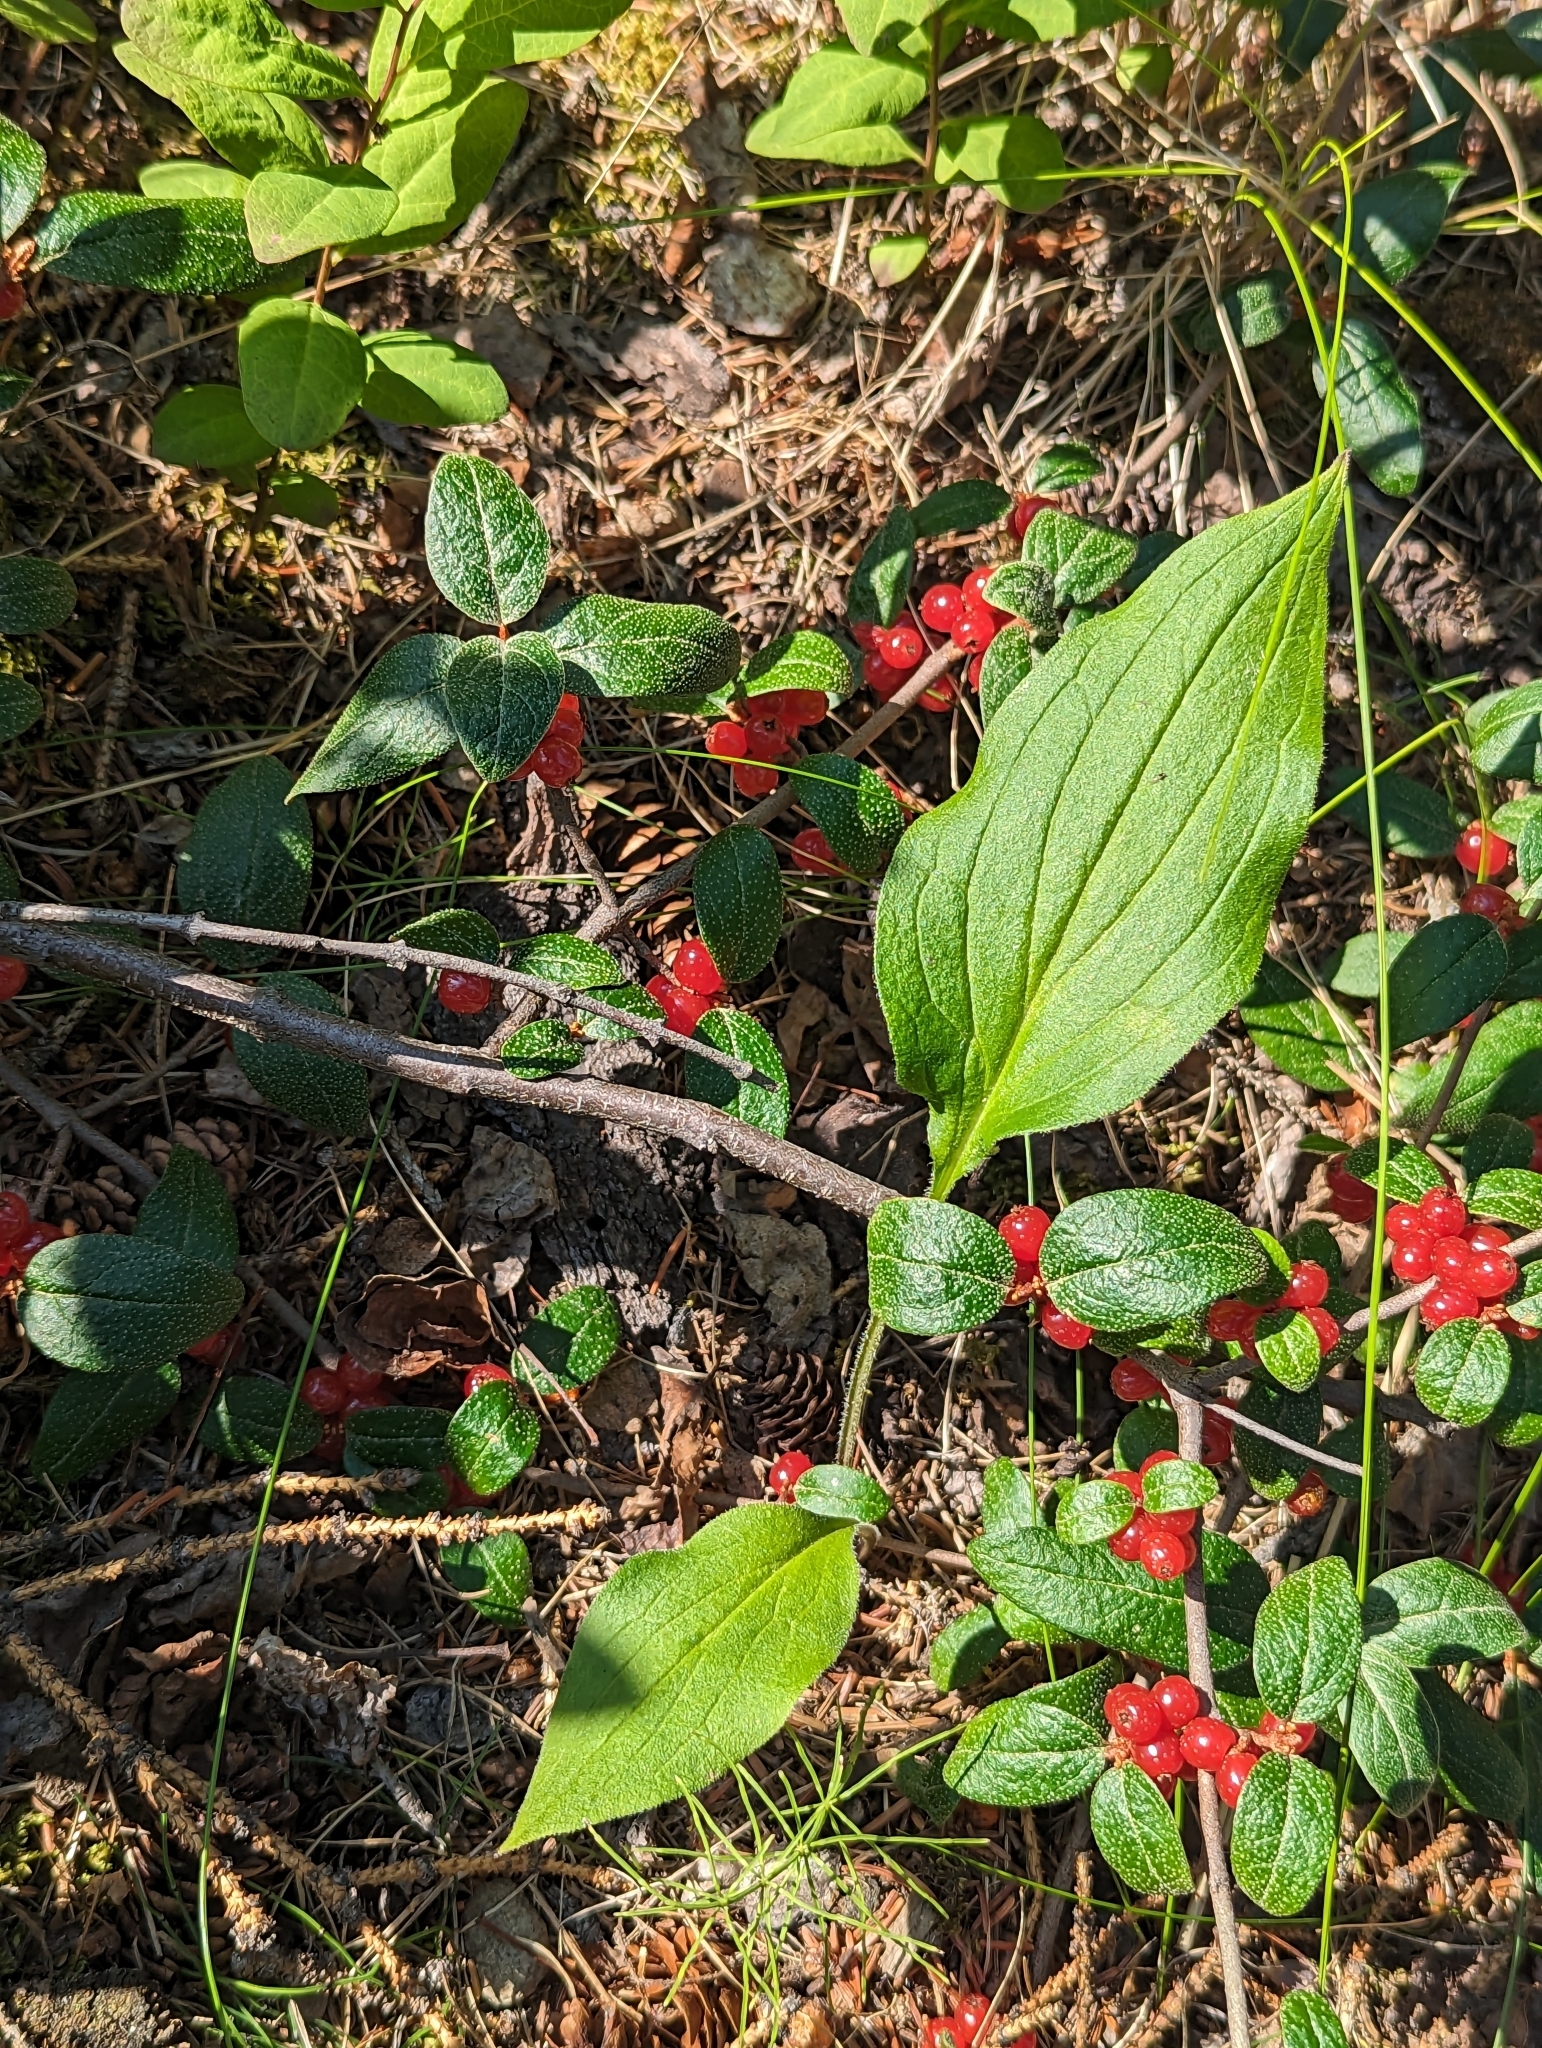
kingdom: Plantae
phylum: Tracheophyta
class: Magnoliopsida
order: Rosales
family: Elaeagnaceae
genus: Shepherdia
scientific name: Shepherdia canadensis
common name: Soapberry
